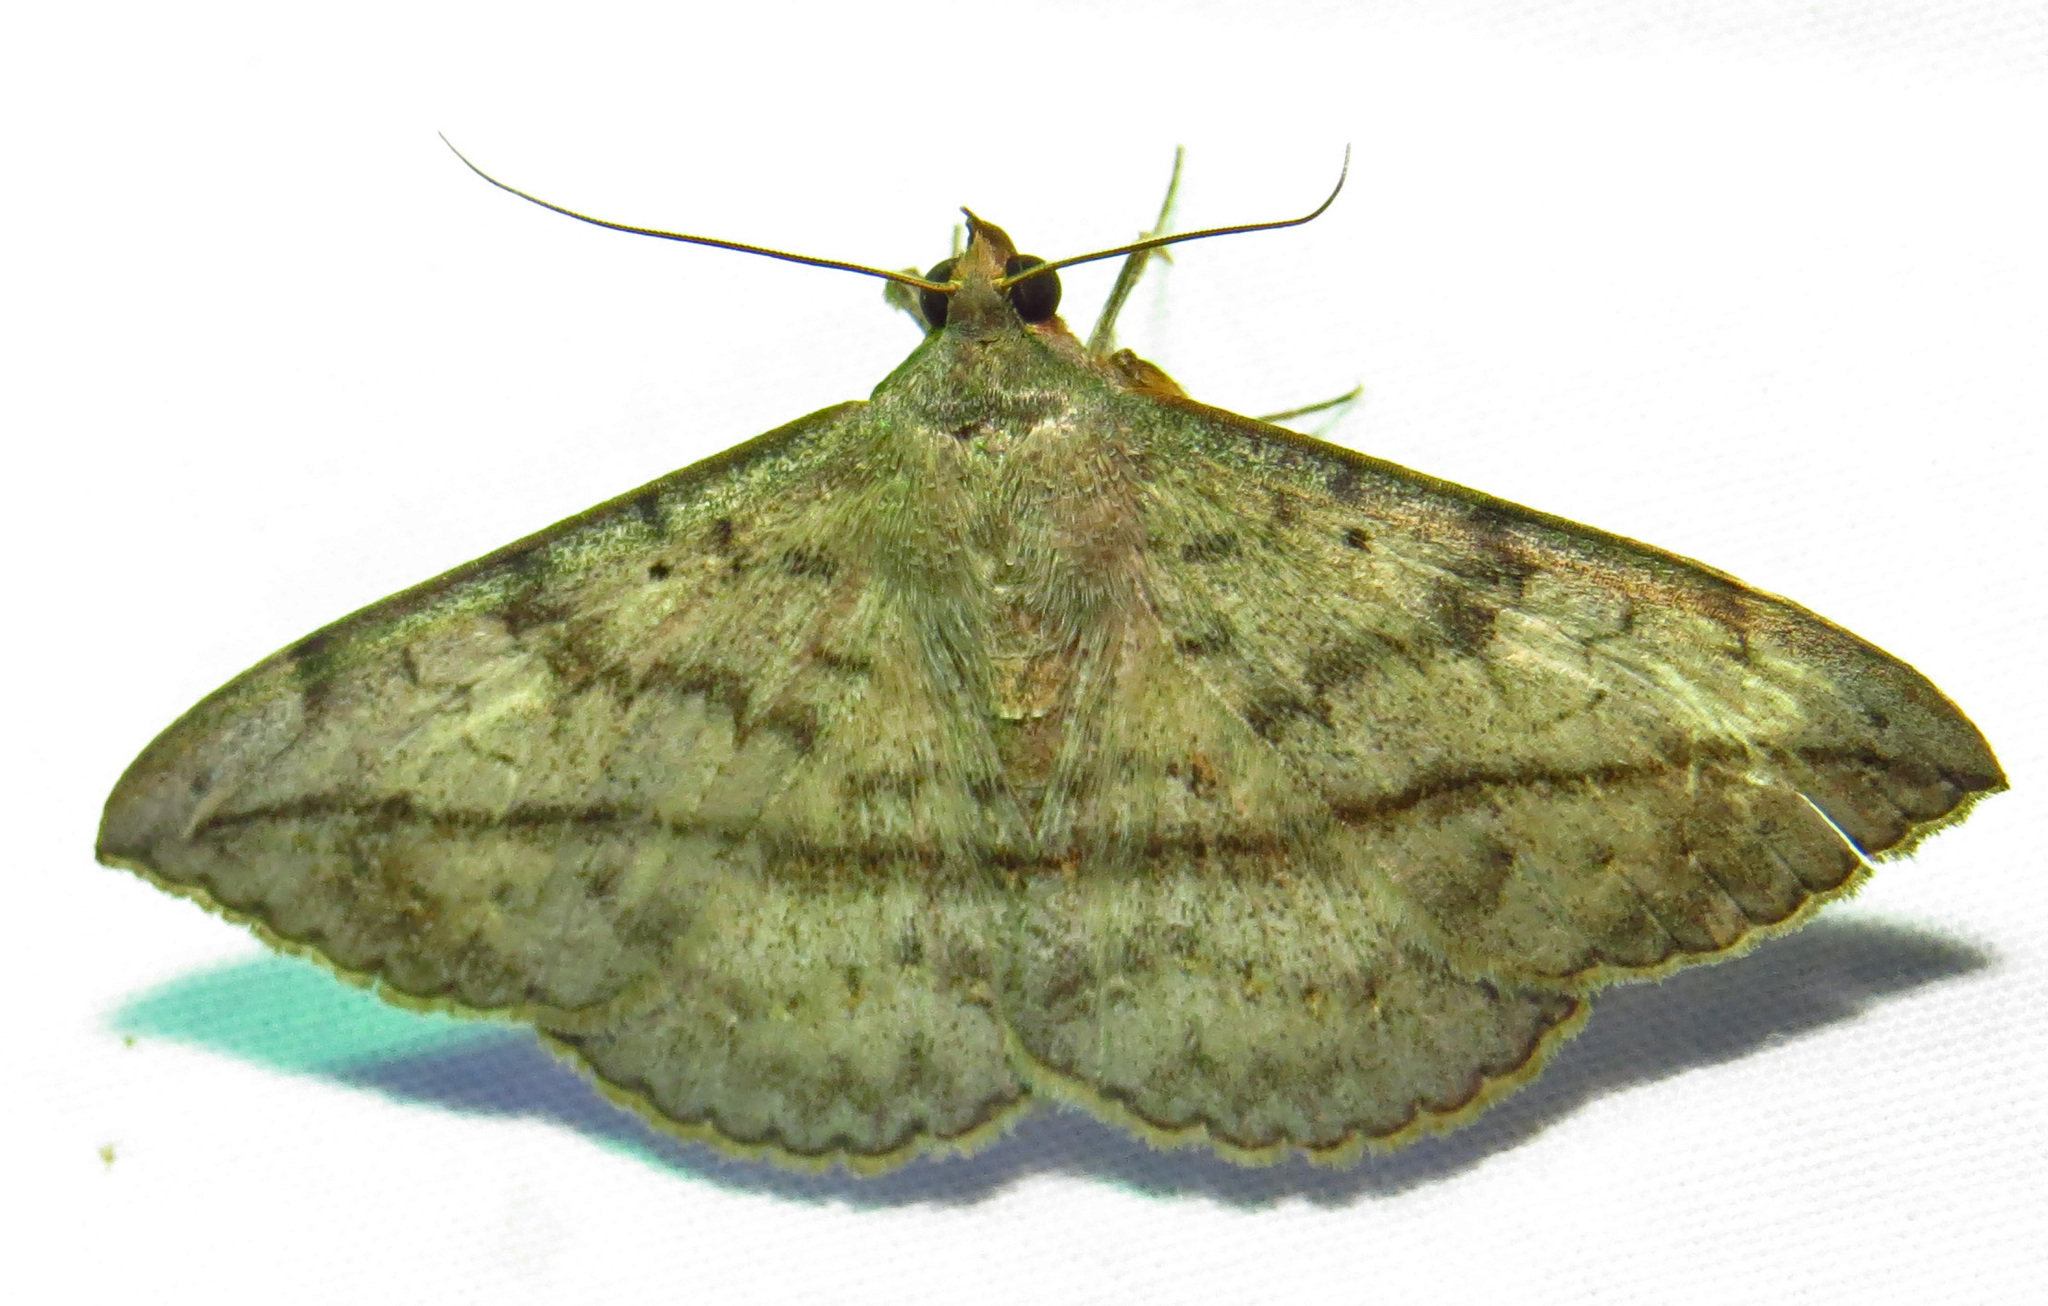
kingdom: Animalia
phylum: Arthropoda
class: Insecta
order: Lepidoptera
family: Erebidae
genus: Anticarsia
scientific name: Anticarsia gemmatalis
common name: Cutworm moth
